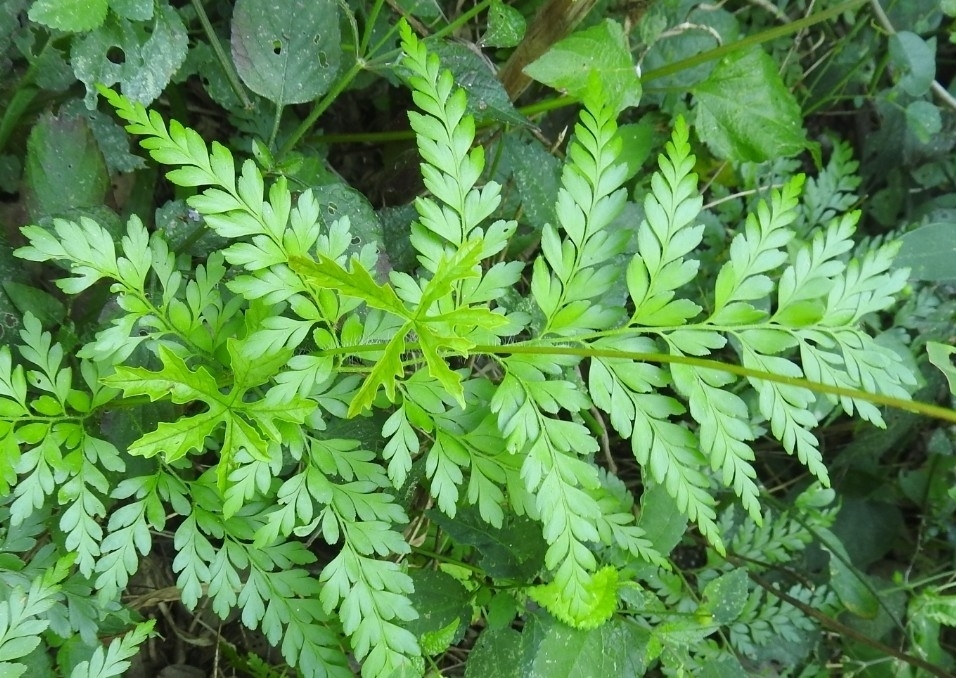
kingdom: Plantae
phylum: Tracheophyta
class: Polypodiopsida
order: Schizaeales
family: Anemiaceae
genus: Anemia
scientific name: Anemia adiantifolia
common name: Pine fern
